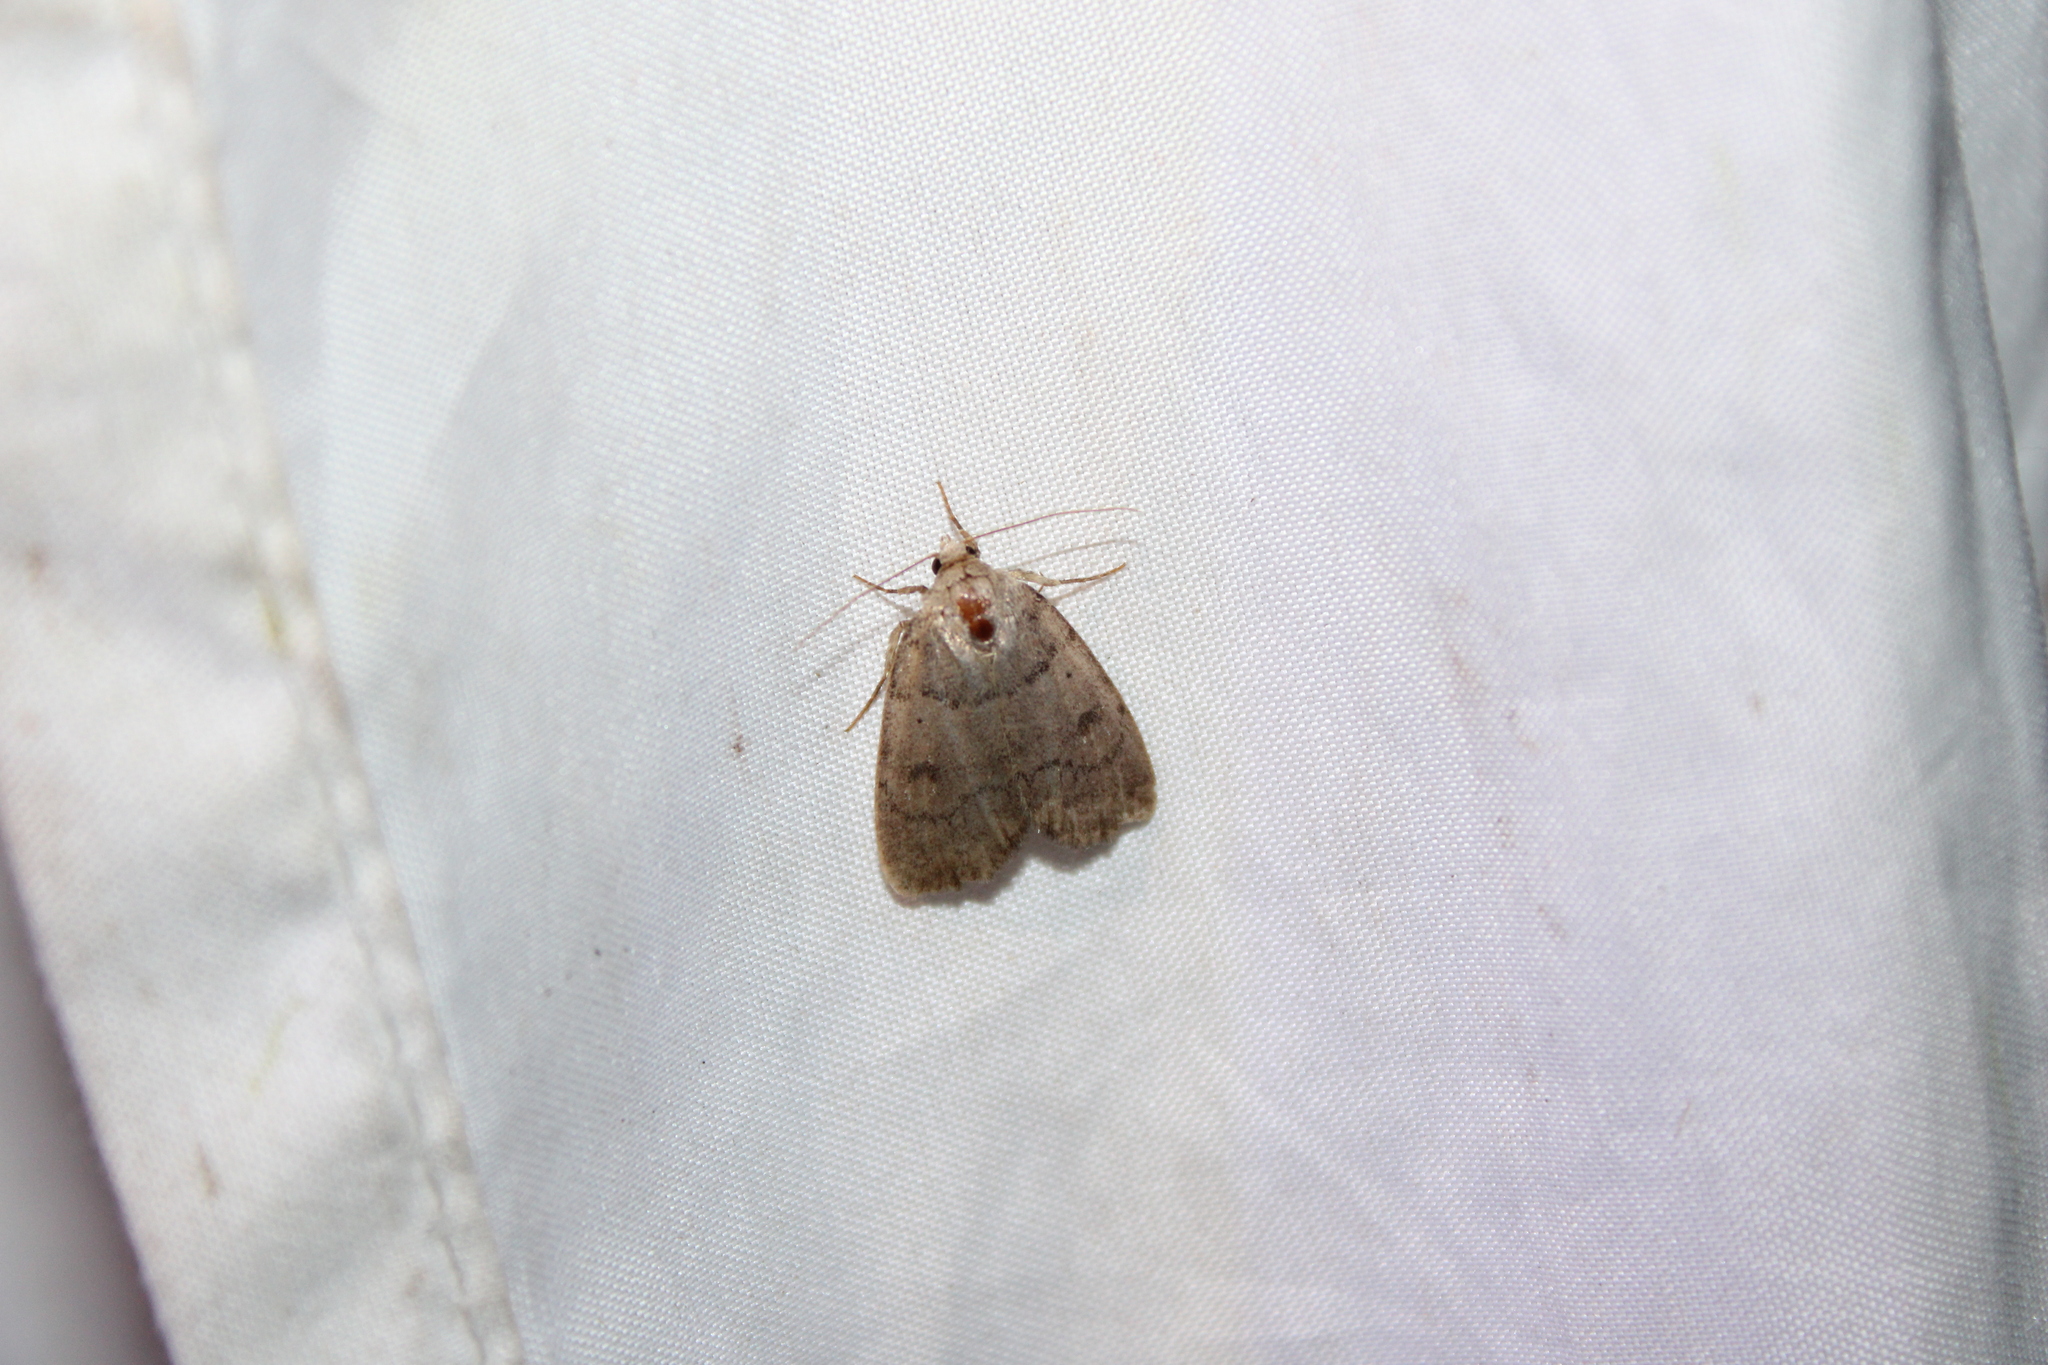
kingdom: Animalia
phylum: Arthropoda
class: Insecta
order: Lepidoptera
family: Noctuidae
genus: Athetis
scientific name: Athetis tarda
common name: Slowpoke moth
